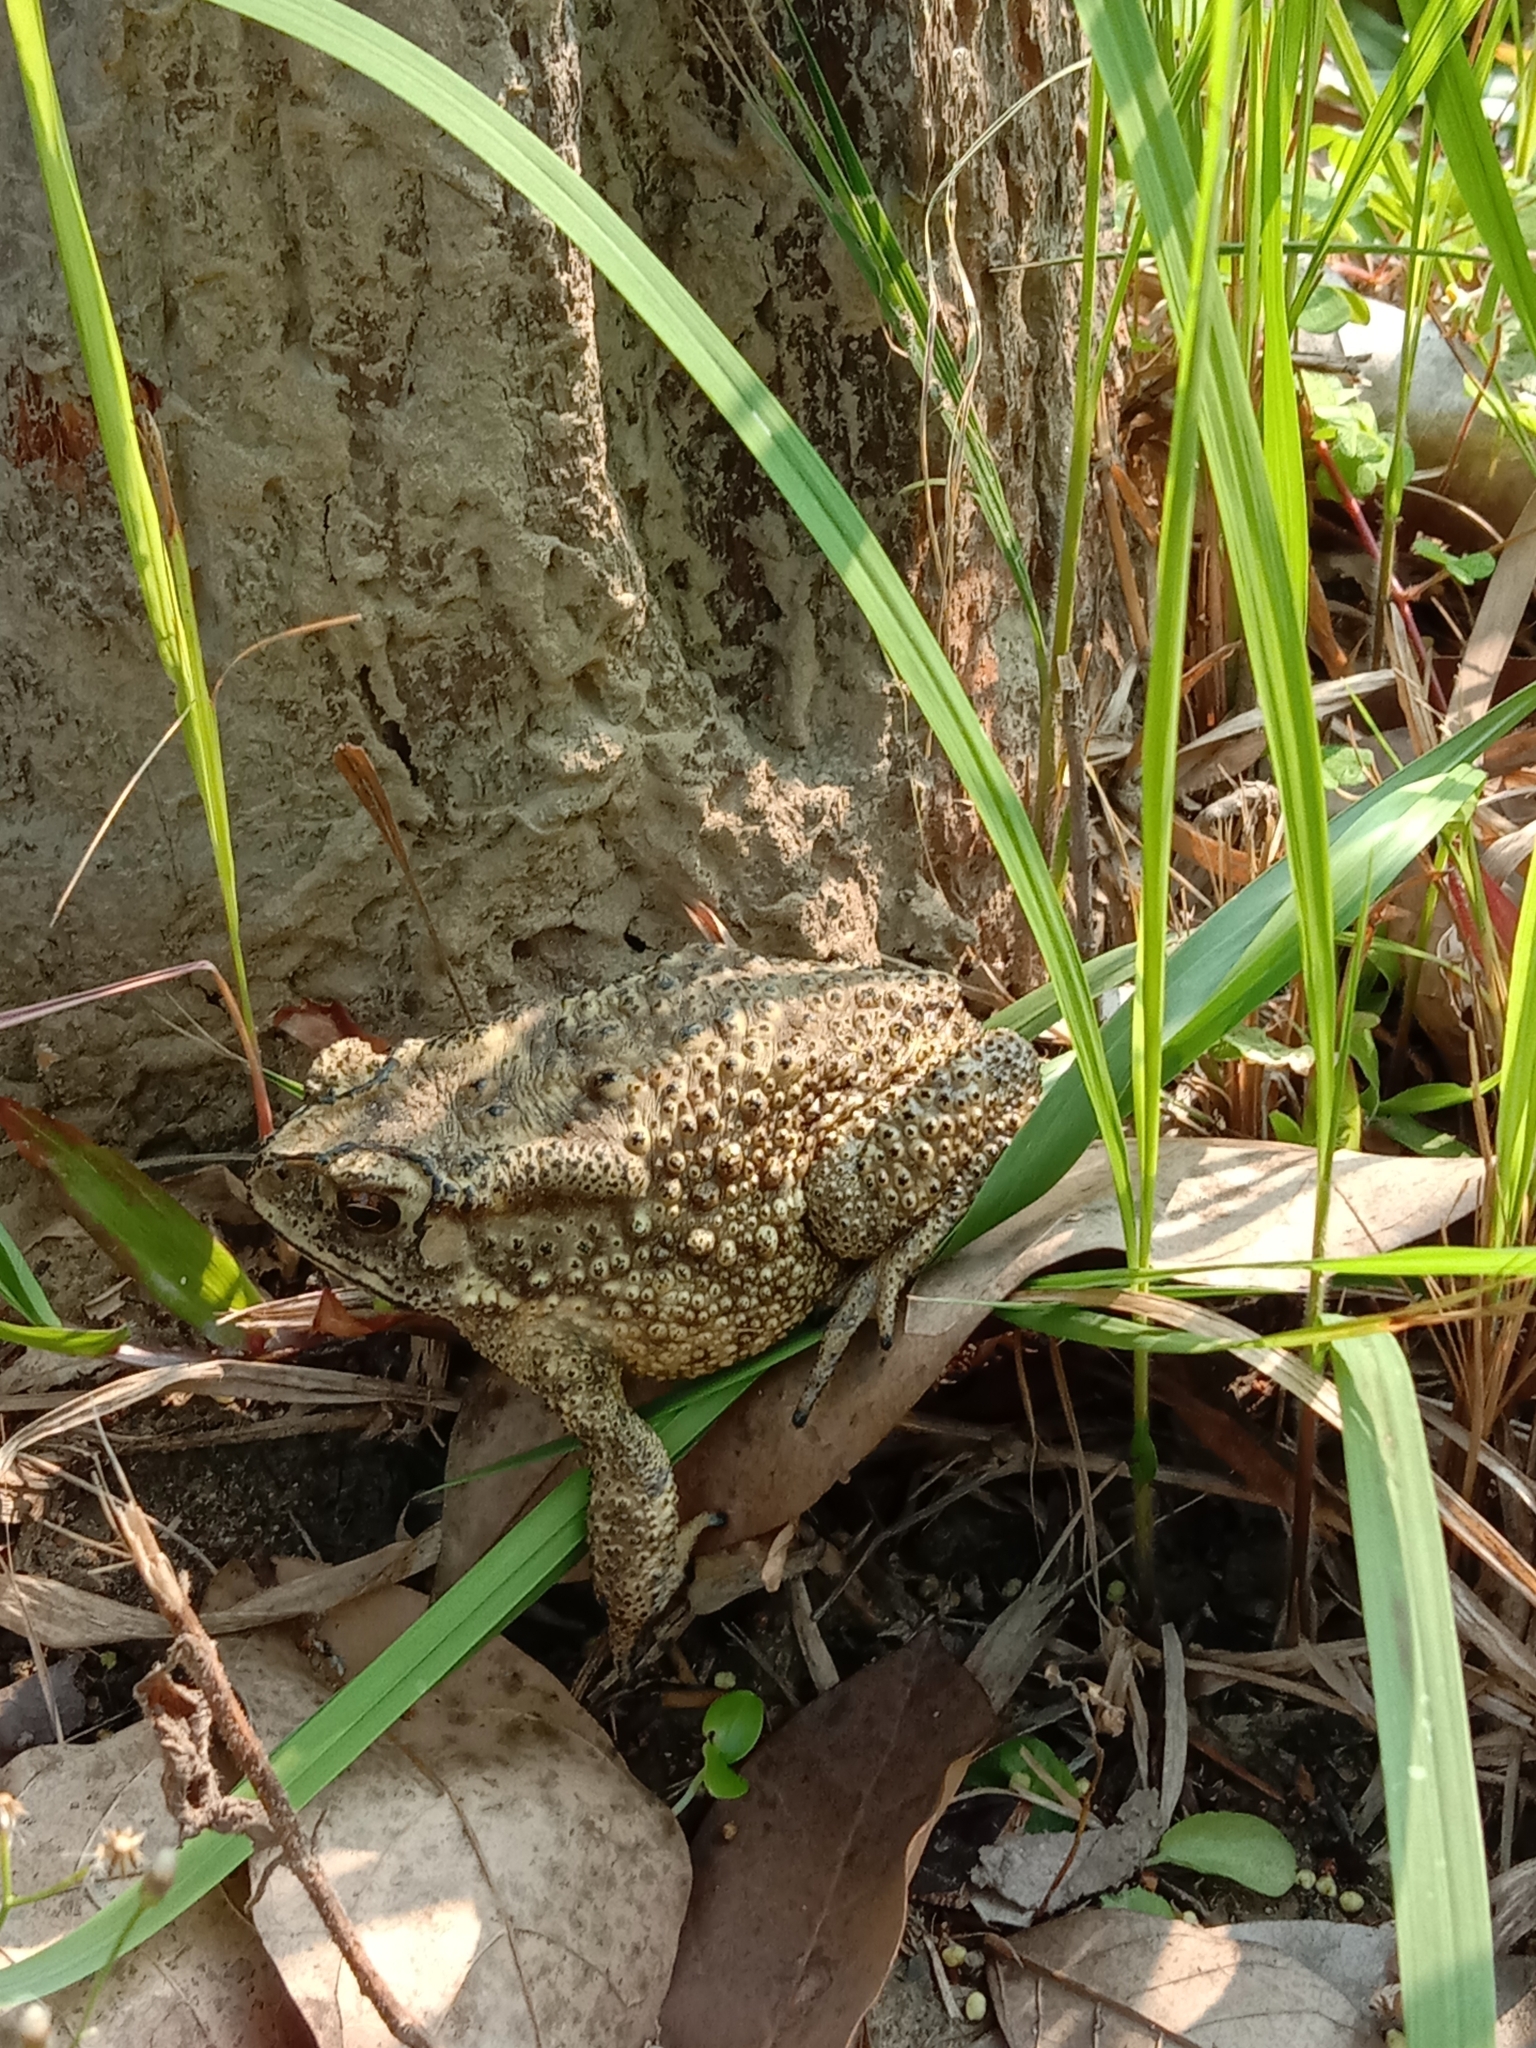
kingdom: Animalia
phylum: Chordata
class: Amphibia
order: Anura
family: Bufonidae
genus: Duttaphrynus
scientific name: Duttaphrynus melanostictus
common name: Common sunda toad
